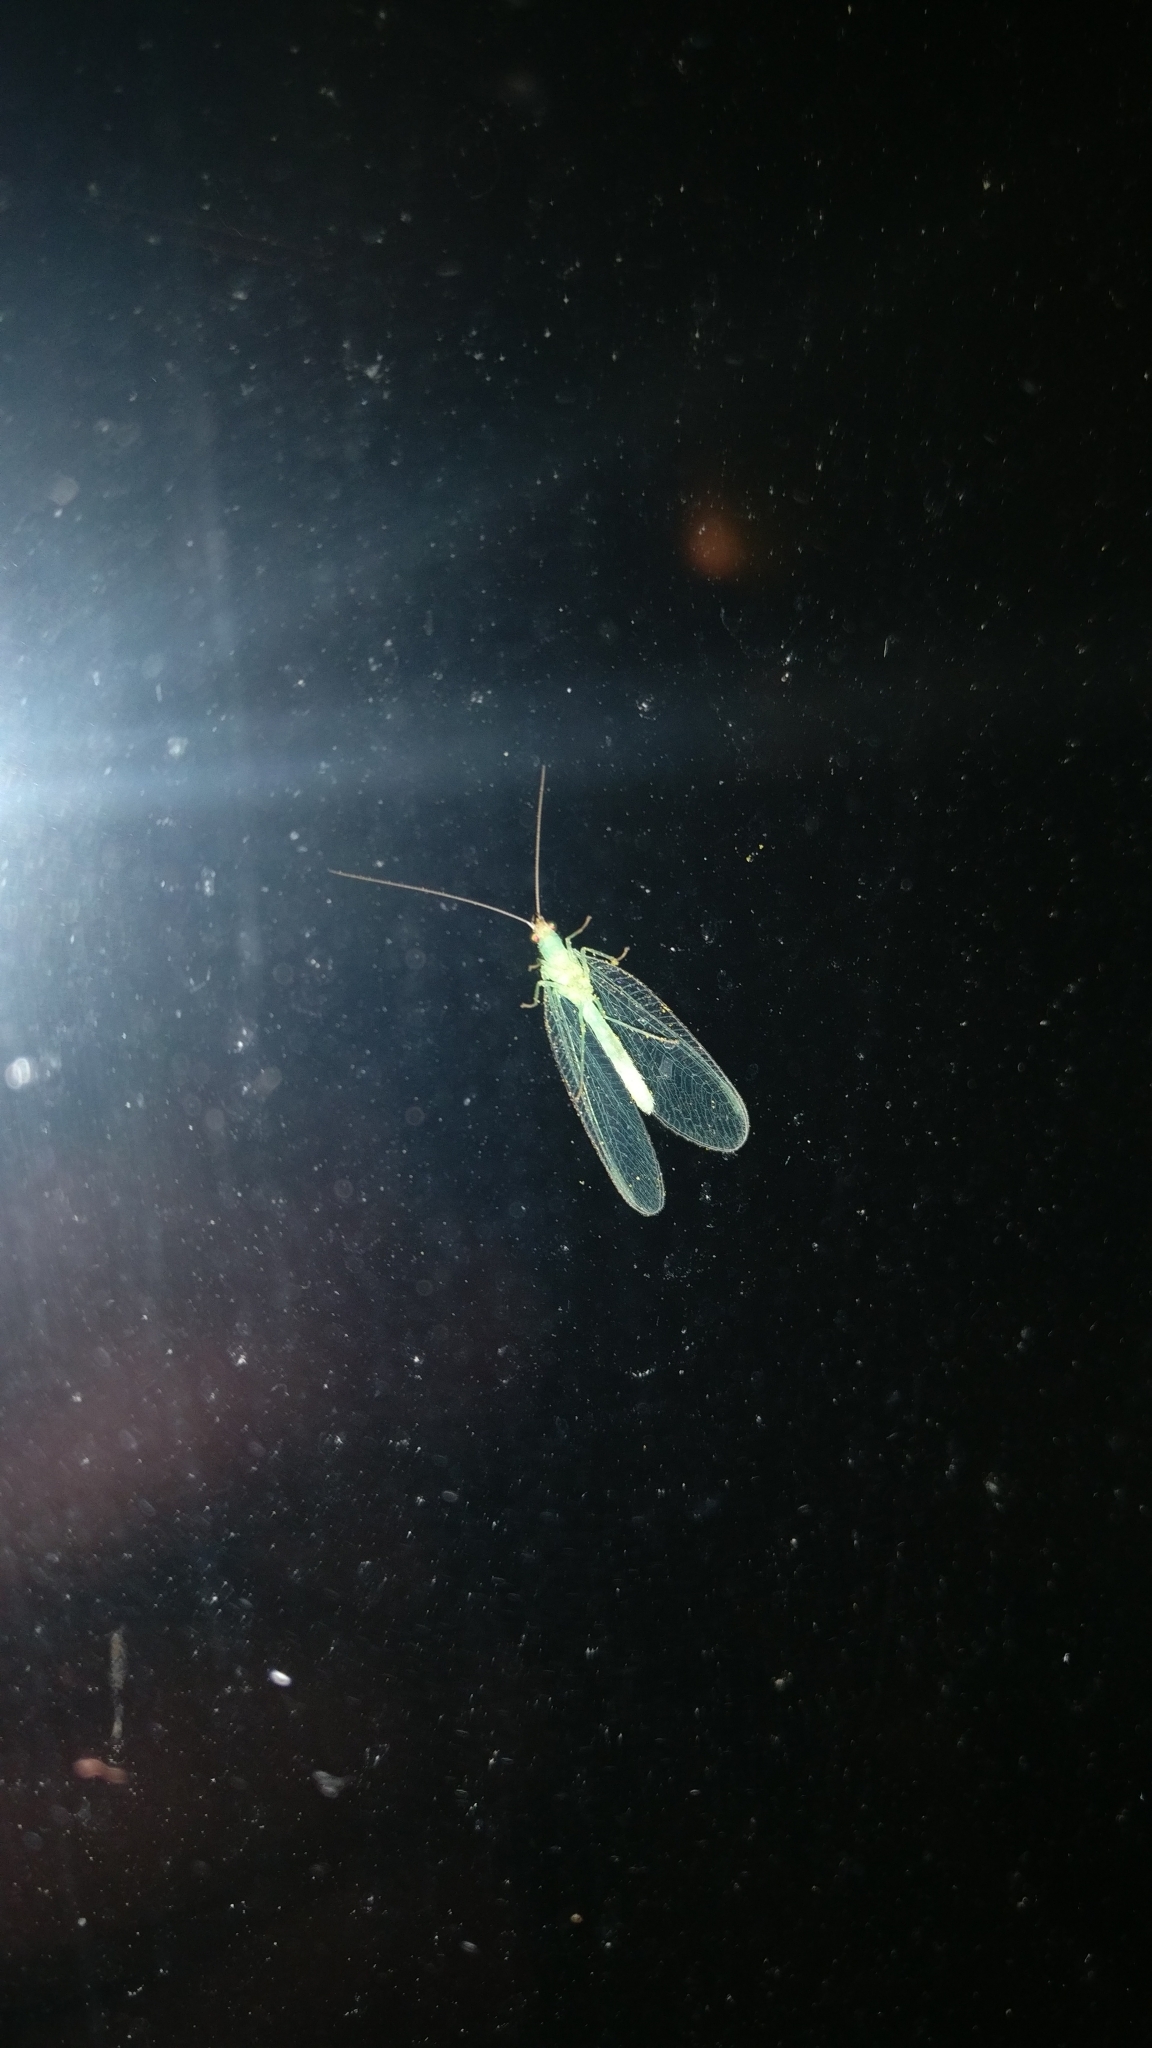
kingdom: Animalia
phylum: Arthropoda
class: Insecta
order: Neuroptera
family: Chrysopidae
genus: Chrysoperla
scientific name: Chrysoperla
